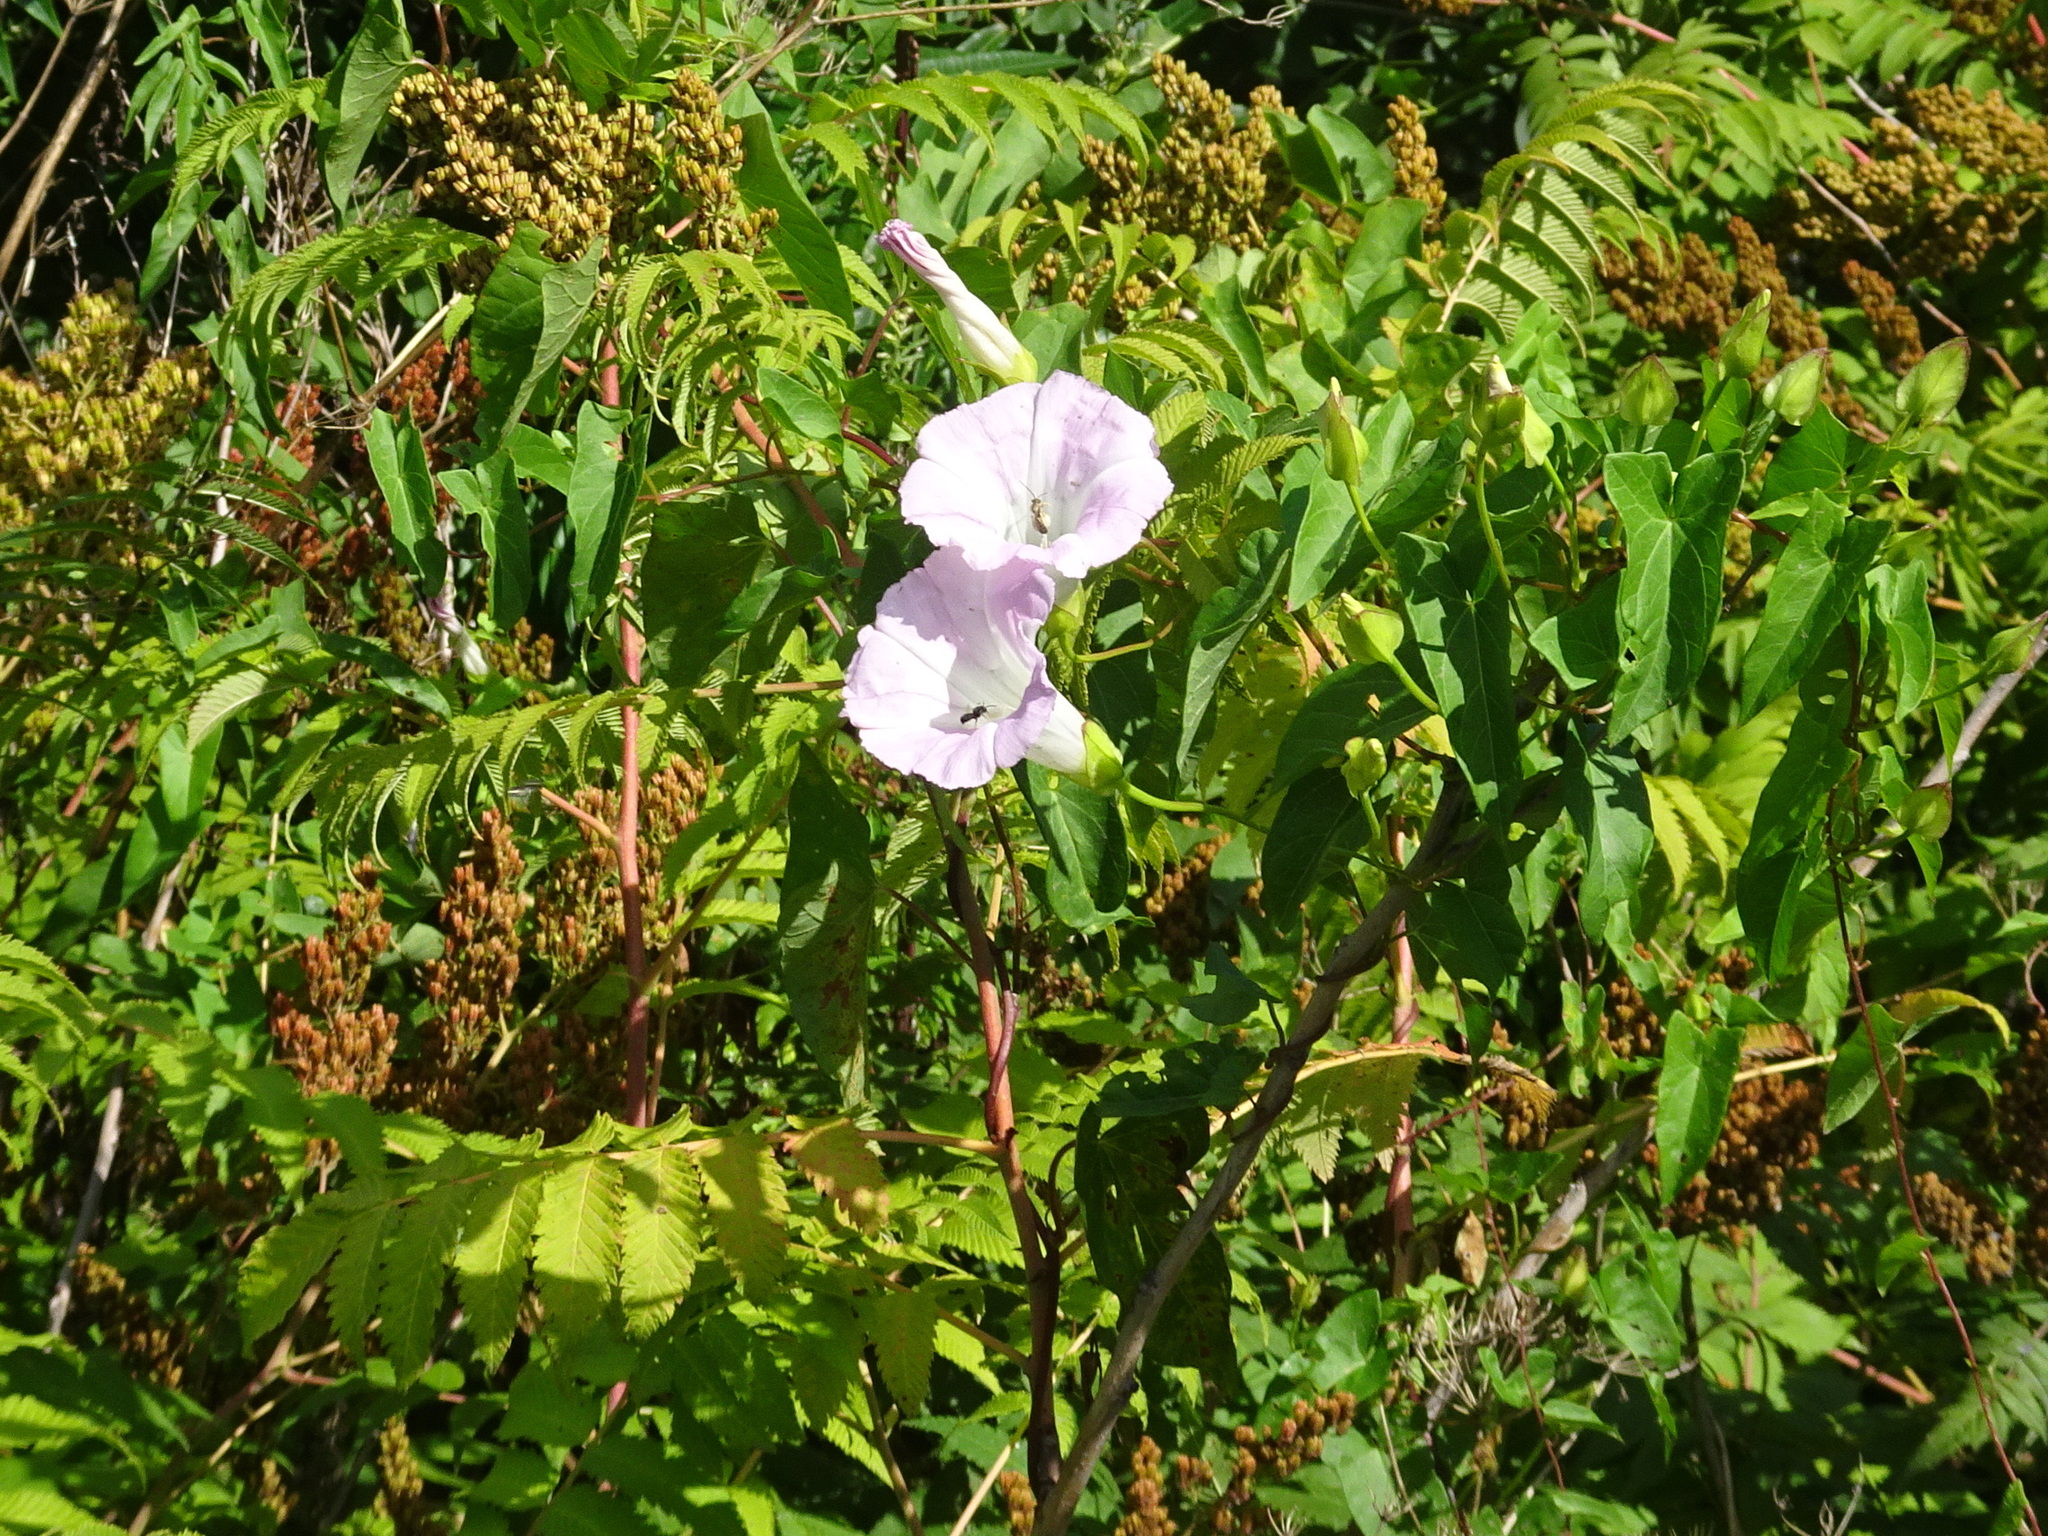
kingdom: Plantae
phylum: Tracheophyta
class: Magnoliopsida
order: Solanales
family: Convolvulaceae
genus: Calystegia
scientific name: Calystegia sepium
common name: Hedge bindweed
